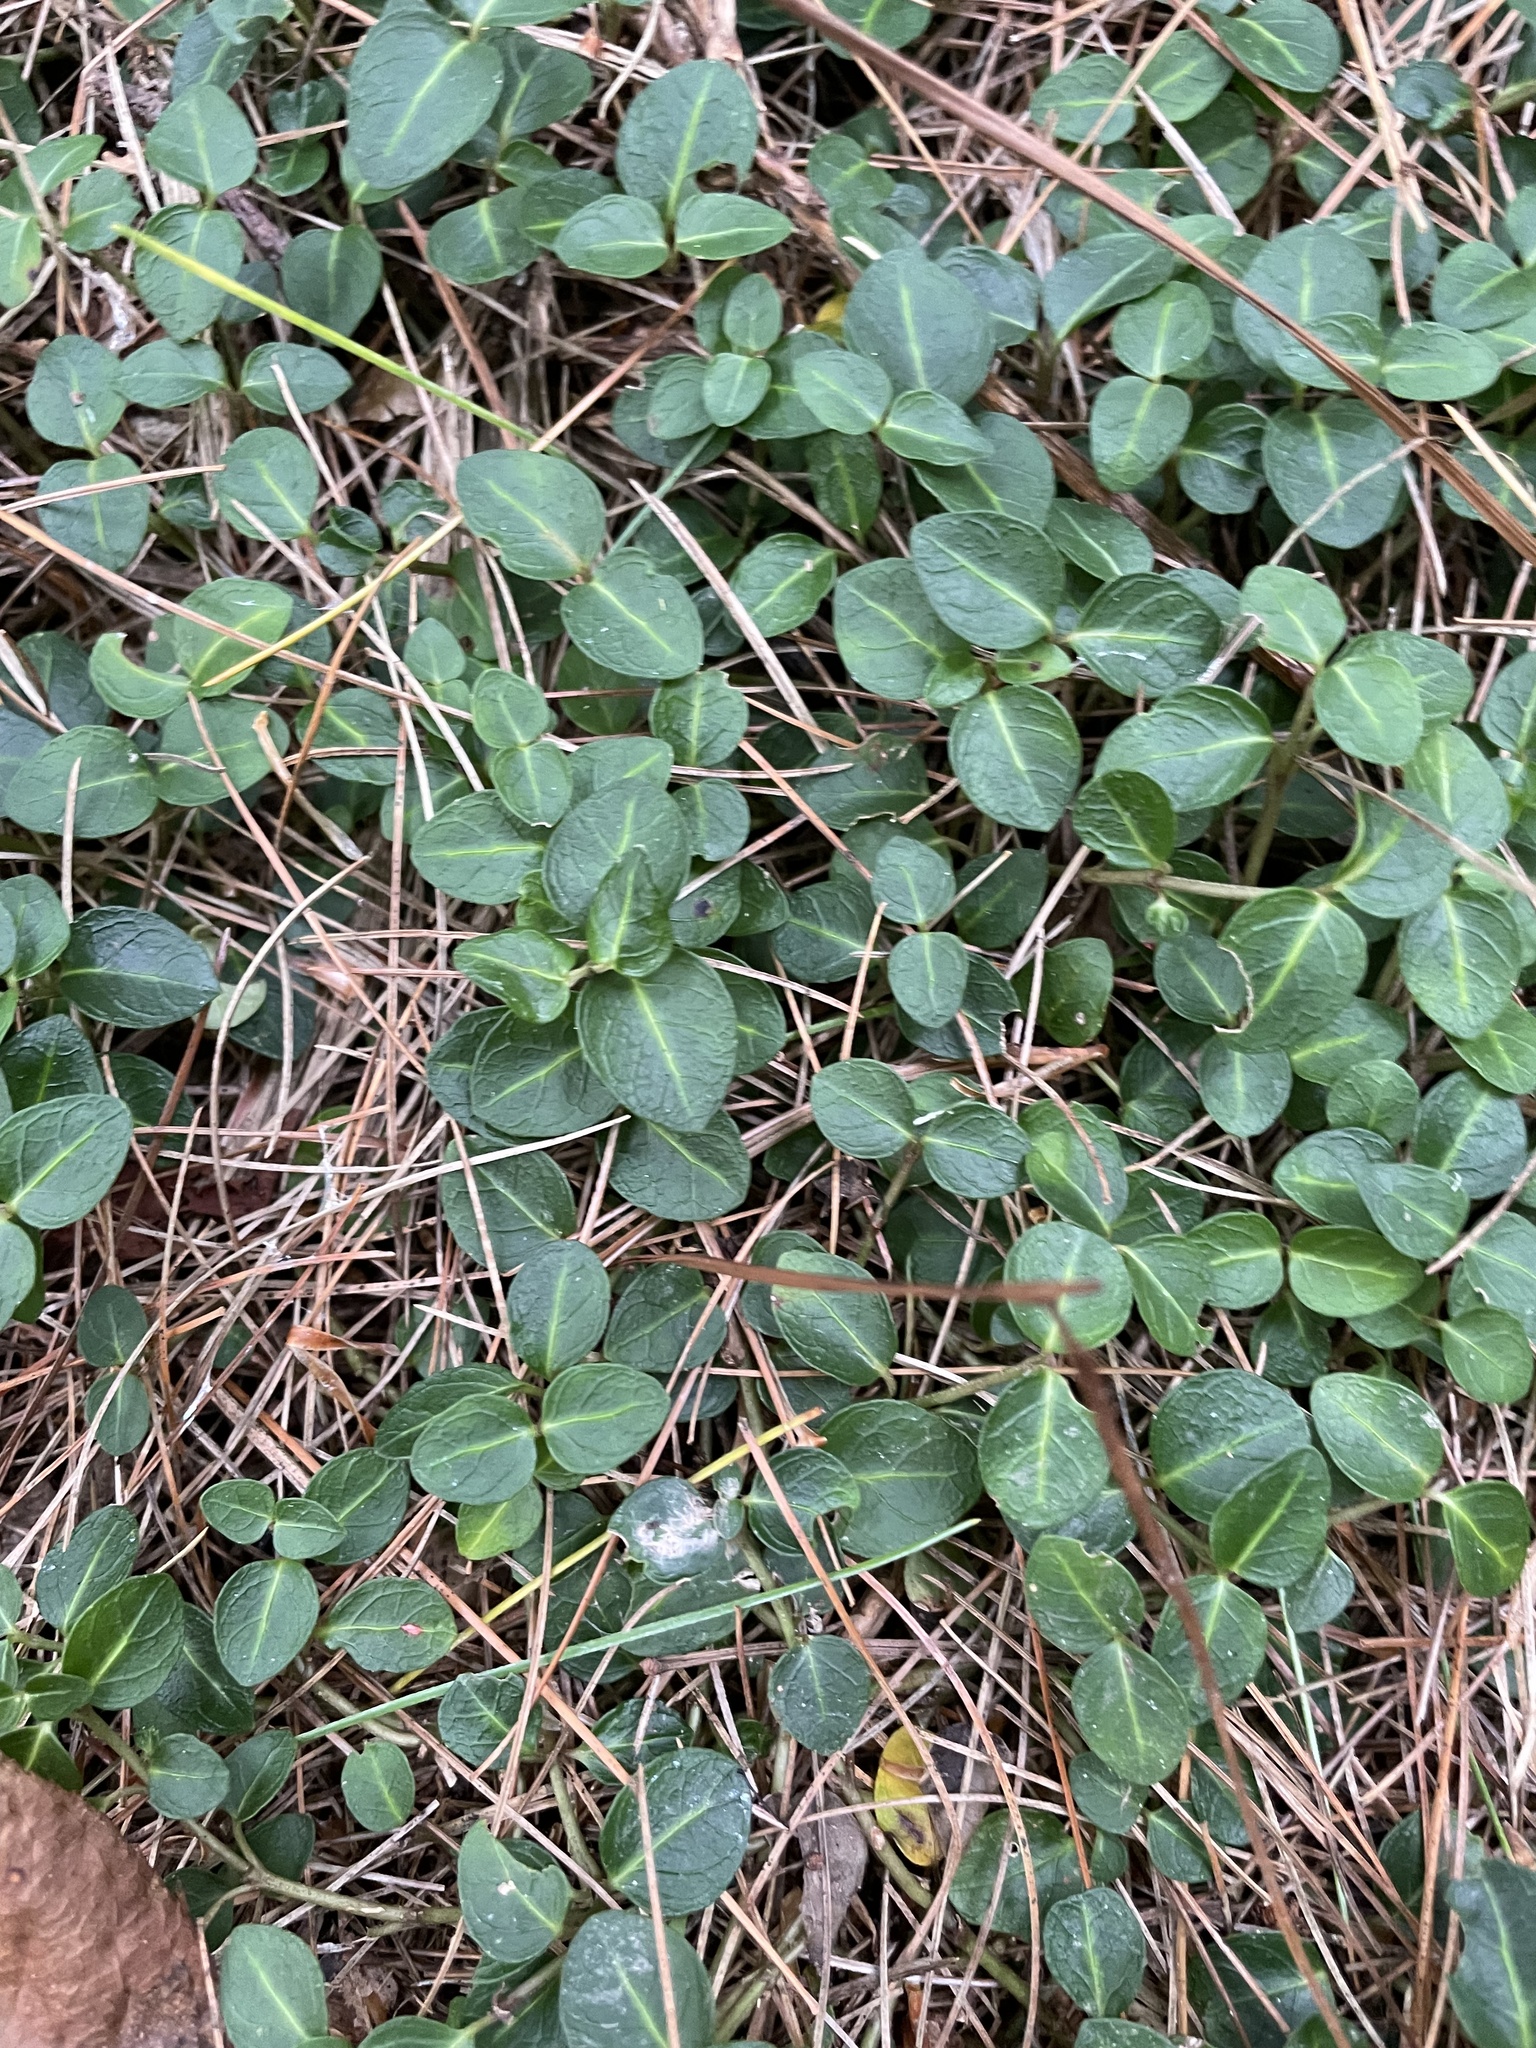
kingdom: Plantae
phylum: Tracheophyta
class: Magnoliopsida
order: Gentianales
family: Rubiaceae
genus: Mitchella
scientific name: Mitchella repens
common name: Partridge-berry
